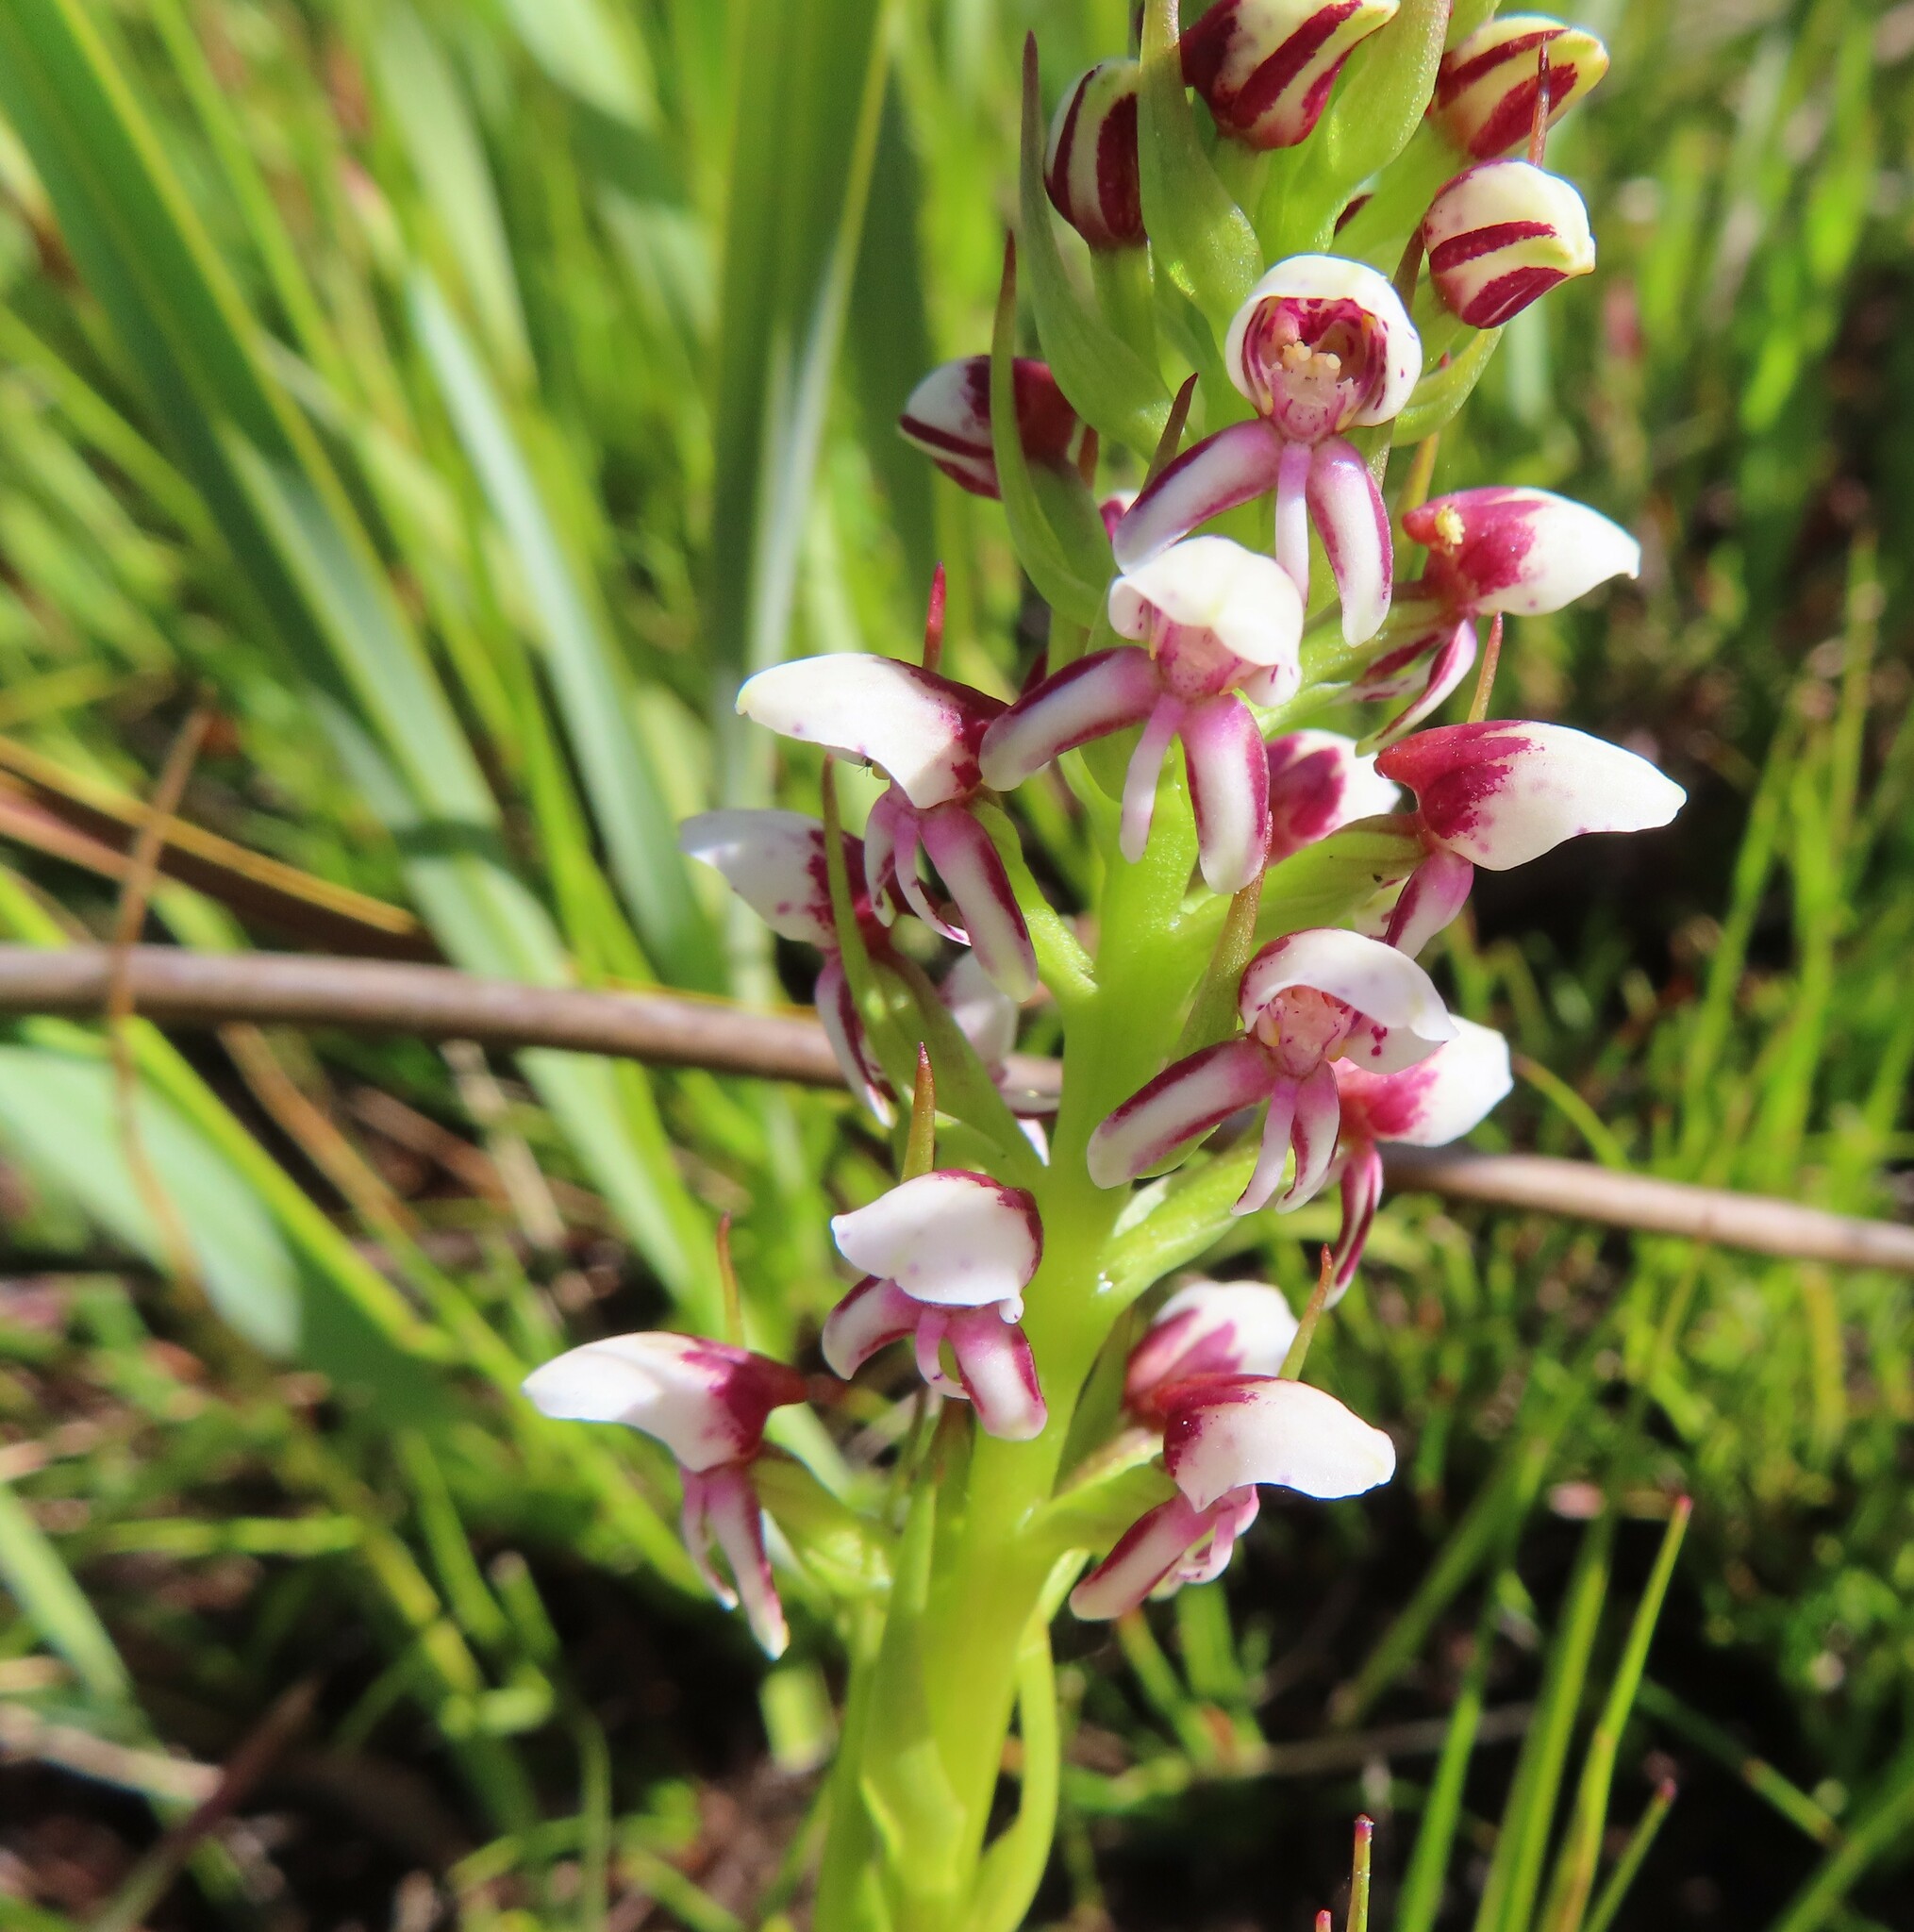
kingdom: Plantae
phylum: Tracheophyta
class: Liliopsida
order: Asparagales
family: Orchidaceae
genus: Disa
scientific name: Disa obtusa
